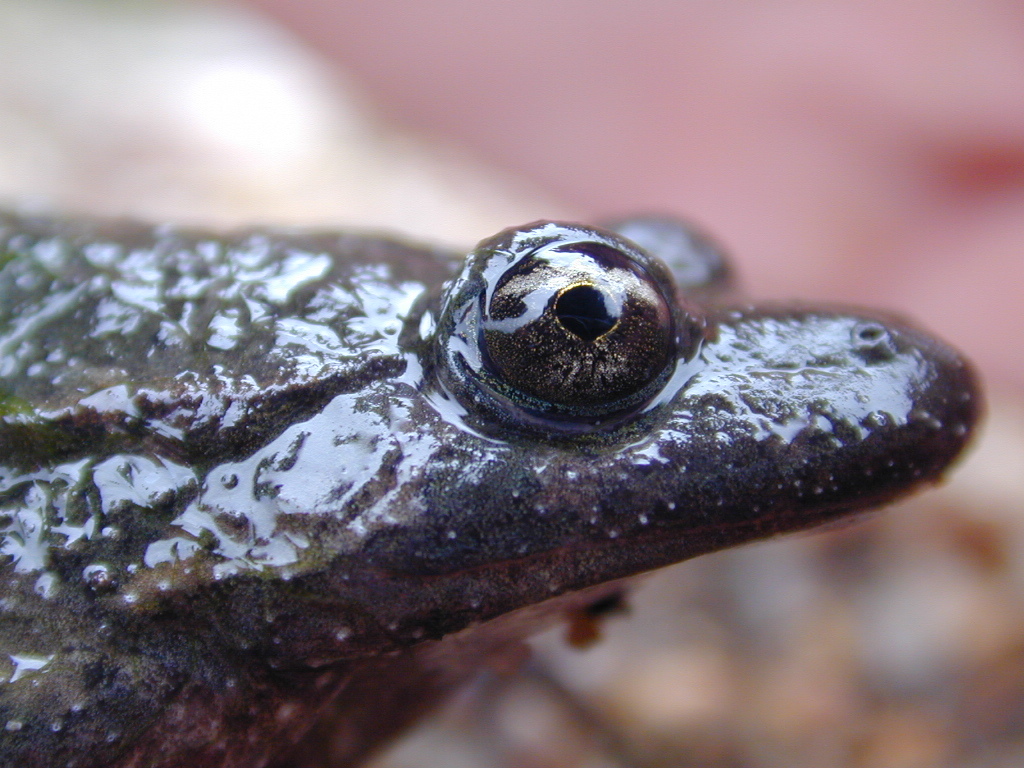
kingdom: Animalia
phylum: Chordata
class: Amphibia
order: Anura
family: Alytidae
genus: Discoglossus
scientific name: Discoglossus montalentii
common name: Corsica painted frog
